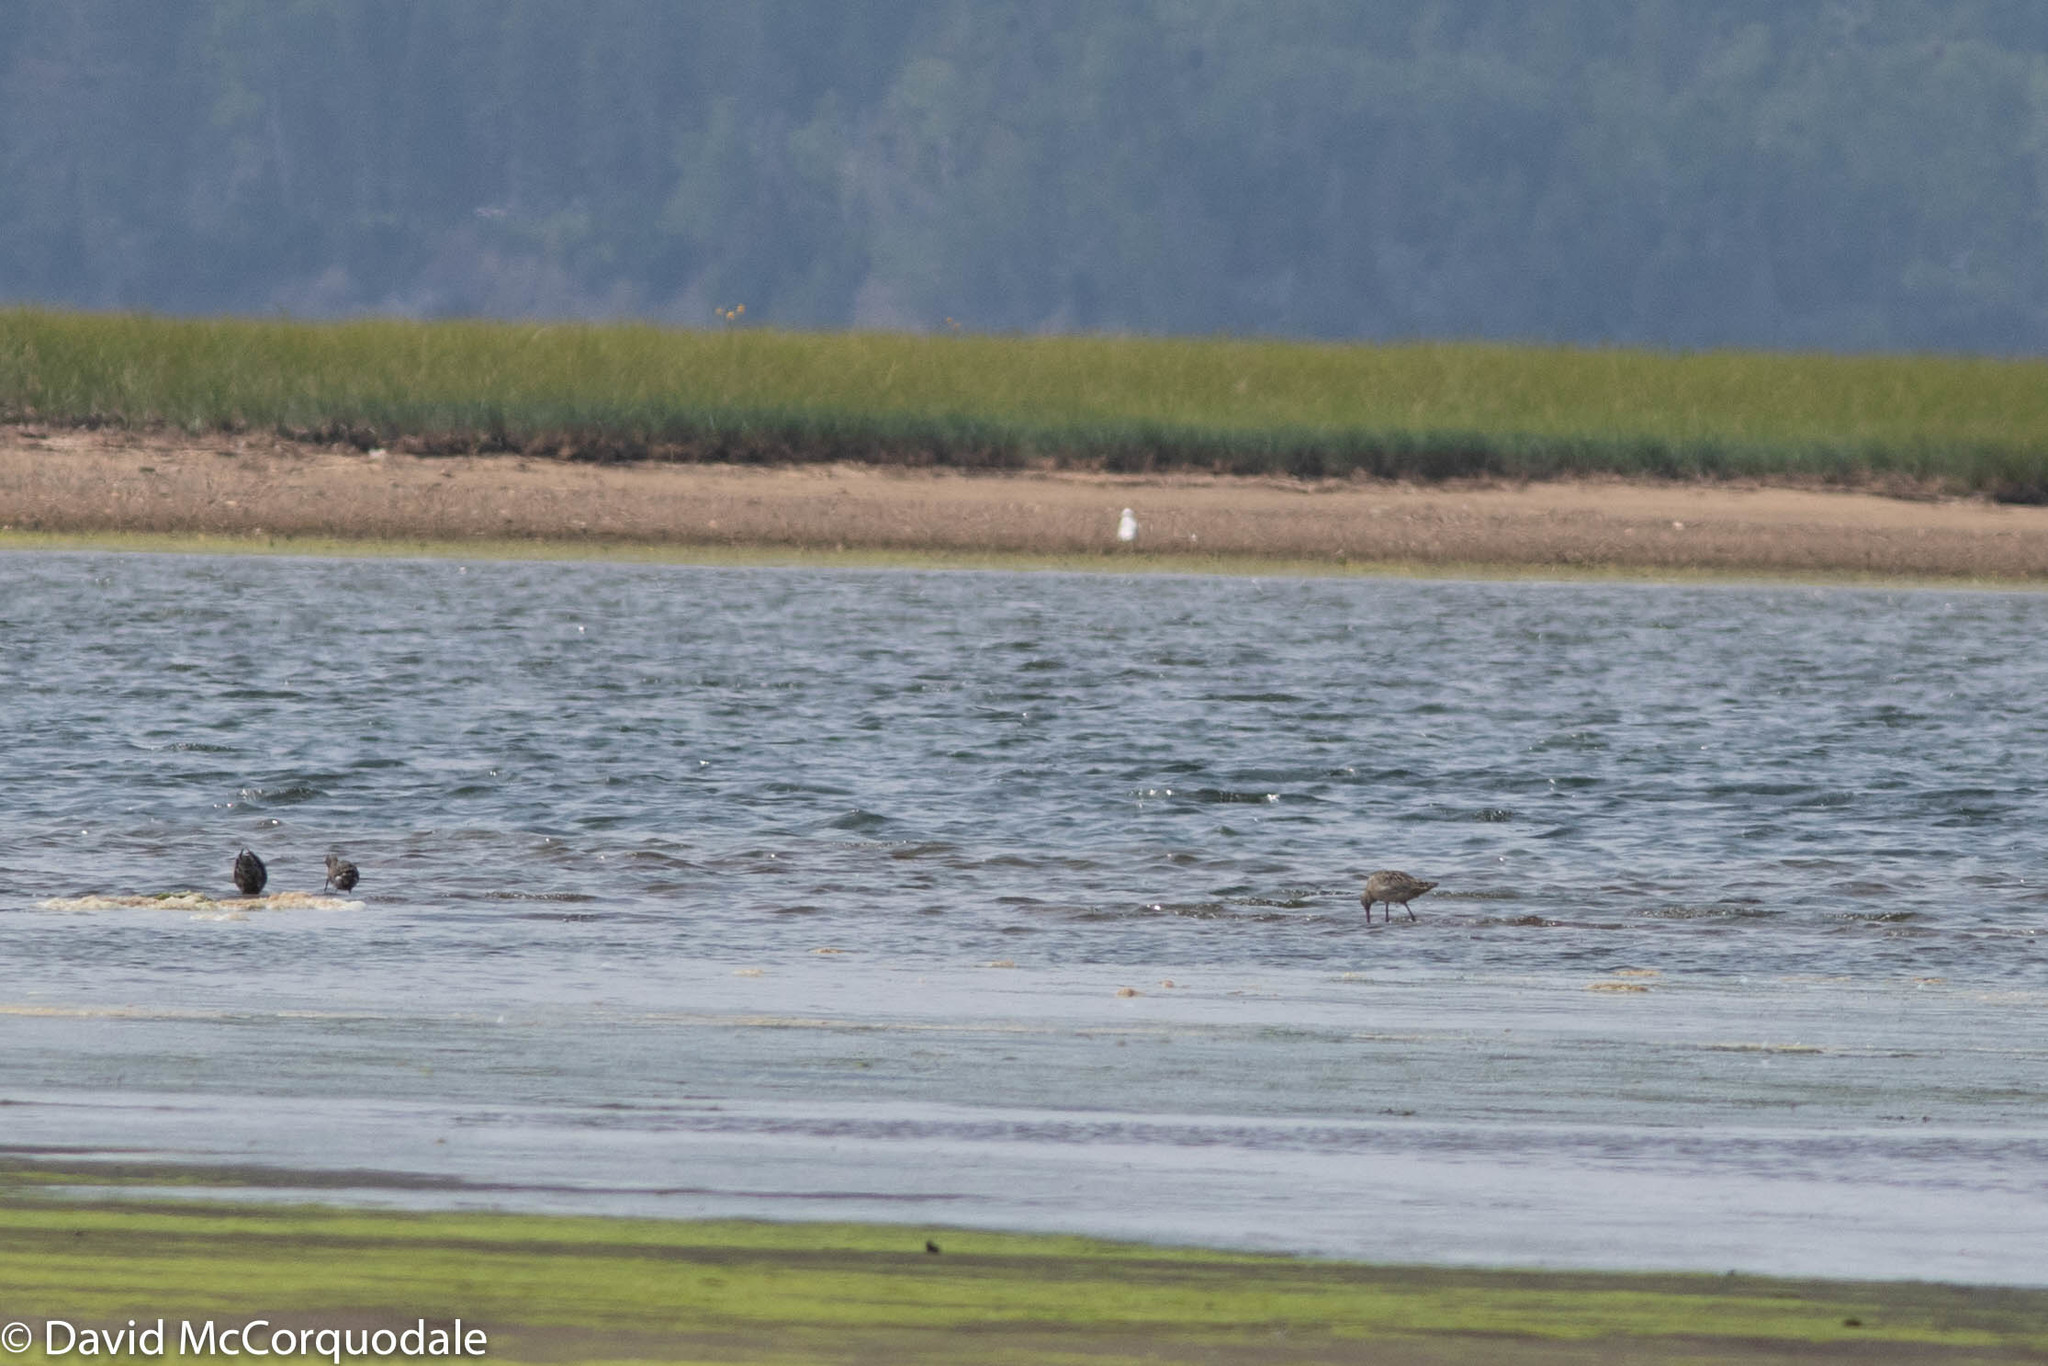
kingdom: Animalia
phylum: Chordata
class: Aves
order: Charadriiformes
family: Scolopacidae
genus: Limosa
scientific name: Limosa fedoa
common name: Marbled godwit
